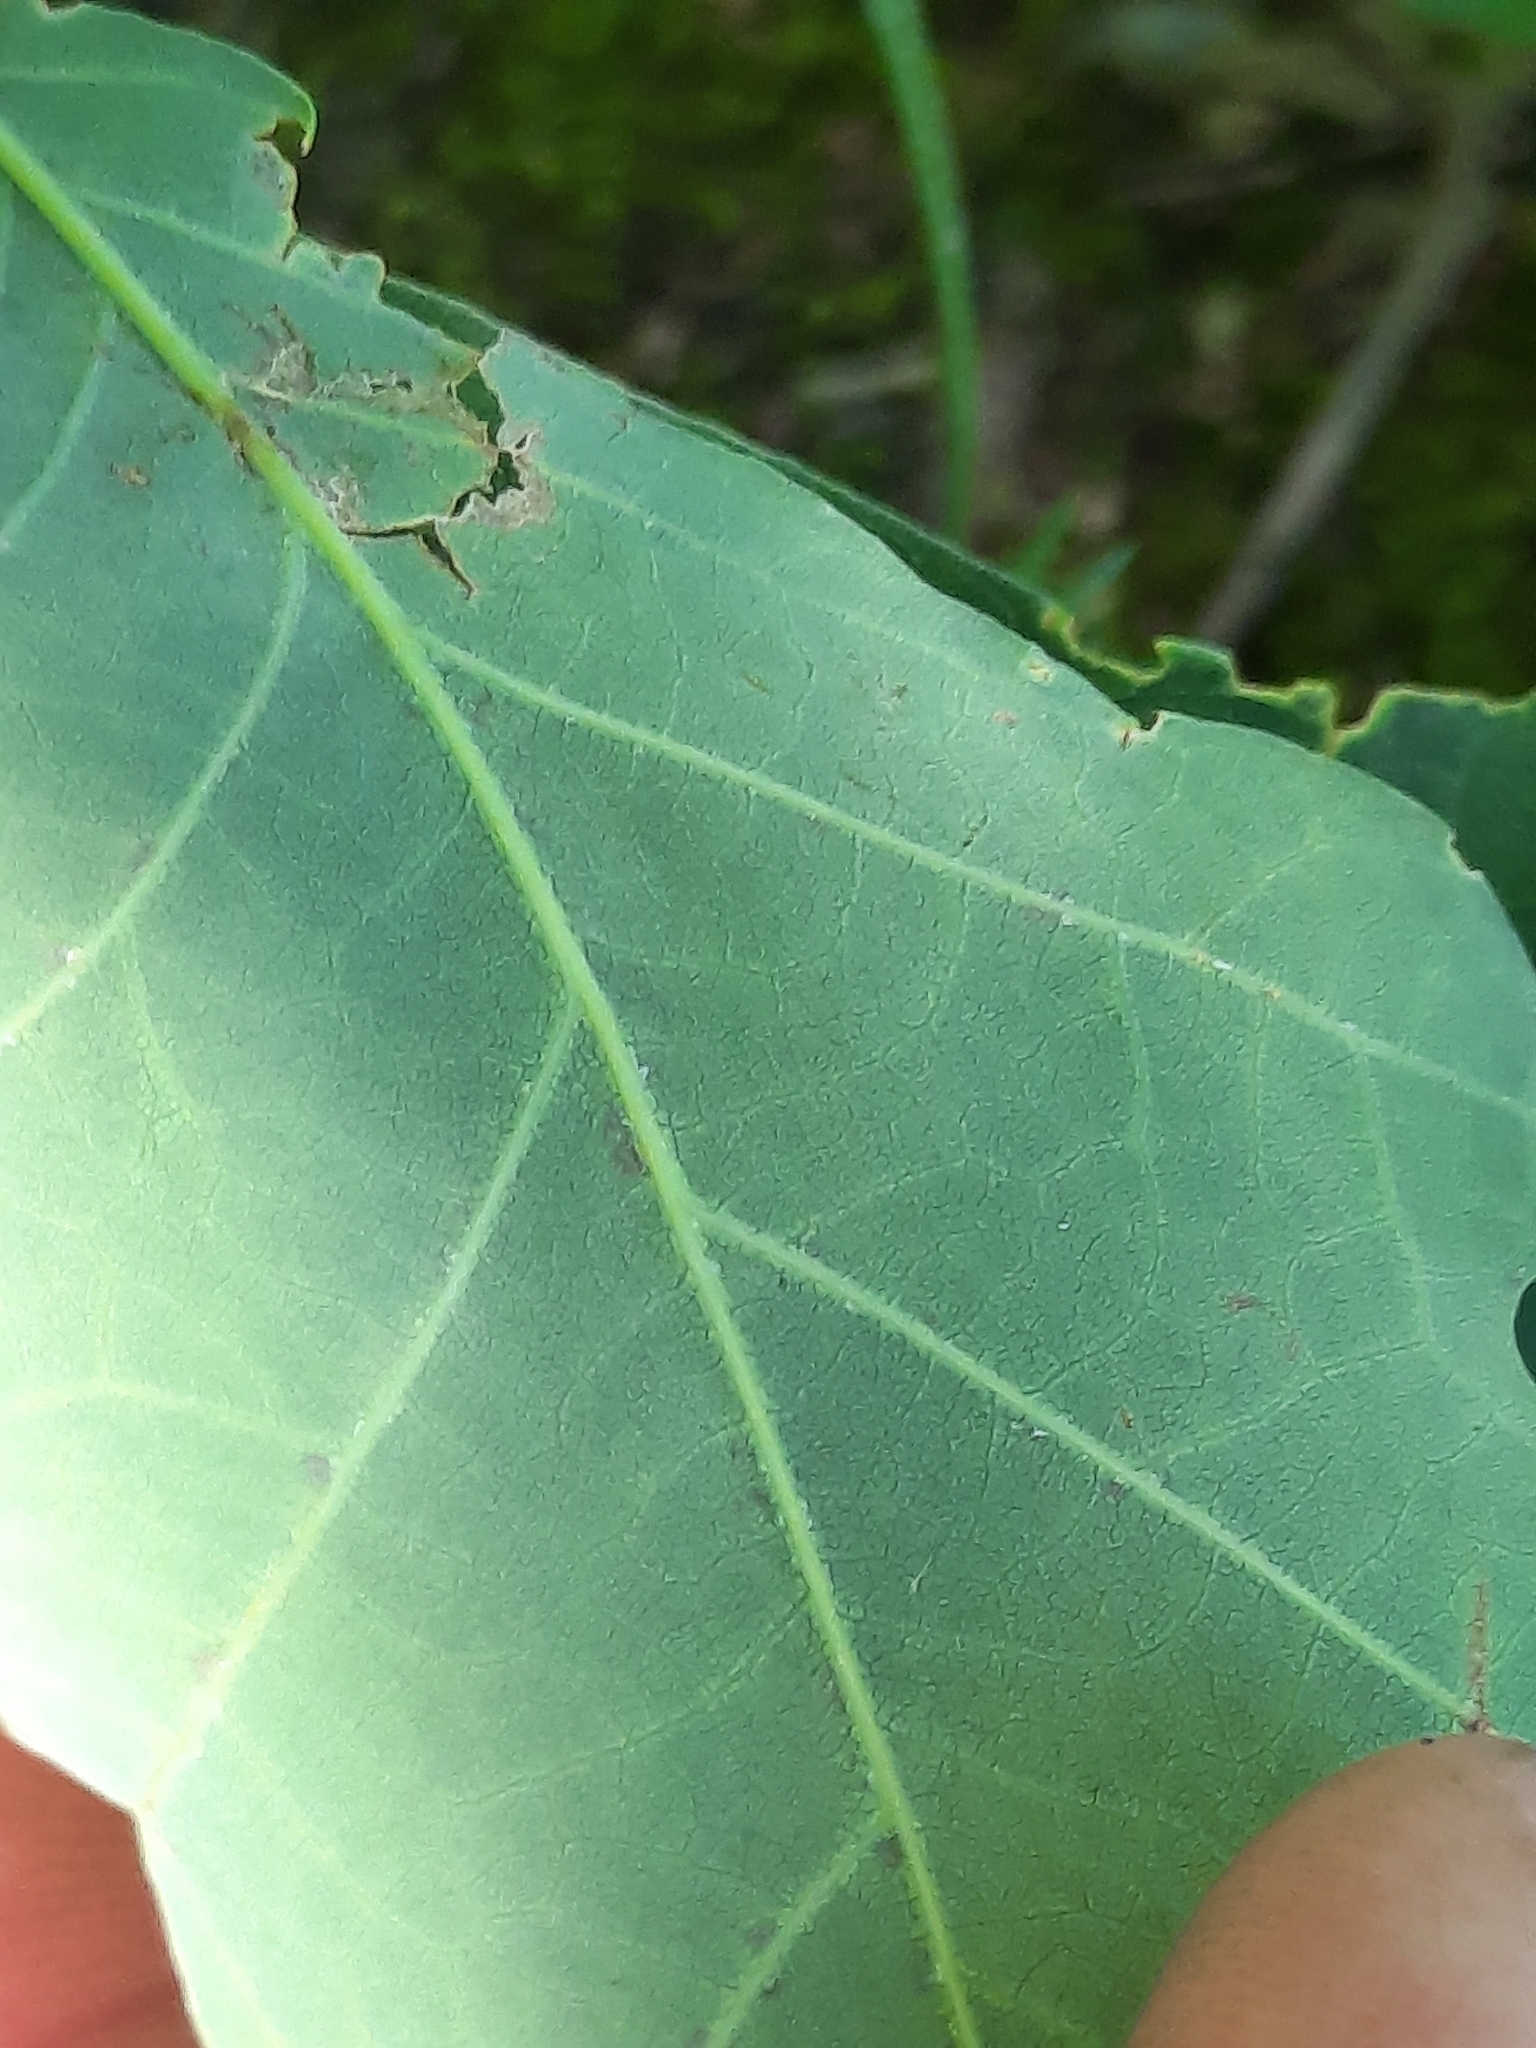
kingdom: Plantae
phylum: Tracheophyta
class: Magnoliopsida
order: Fagales
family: Fagaceae
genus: Quercus
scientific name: Quercus alba
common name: White oak
